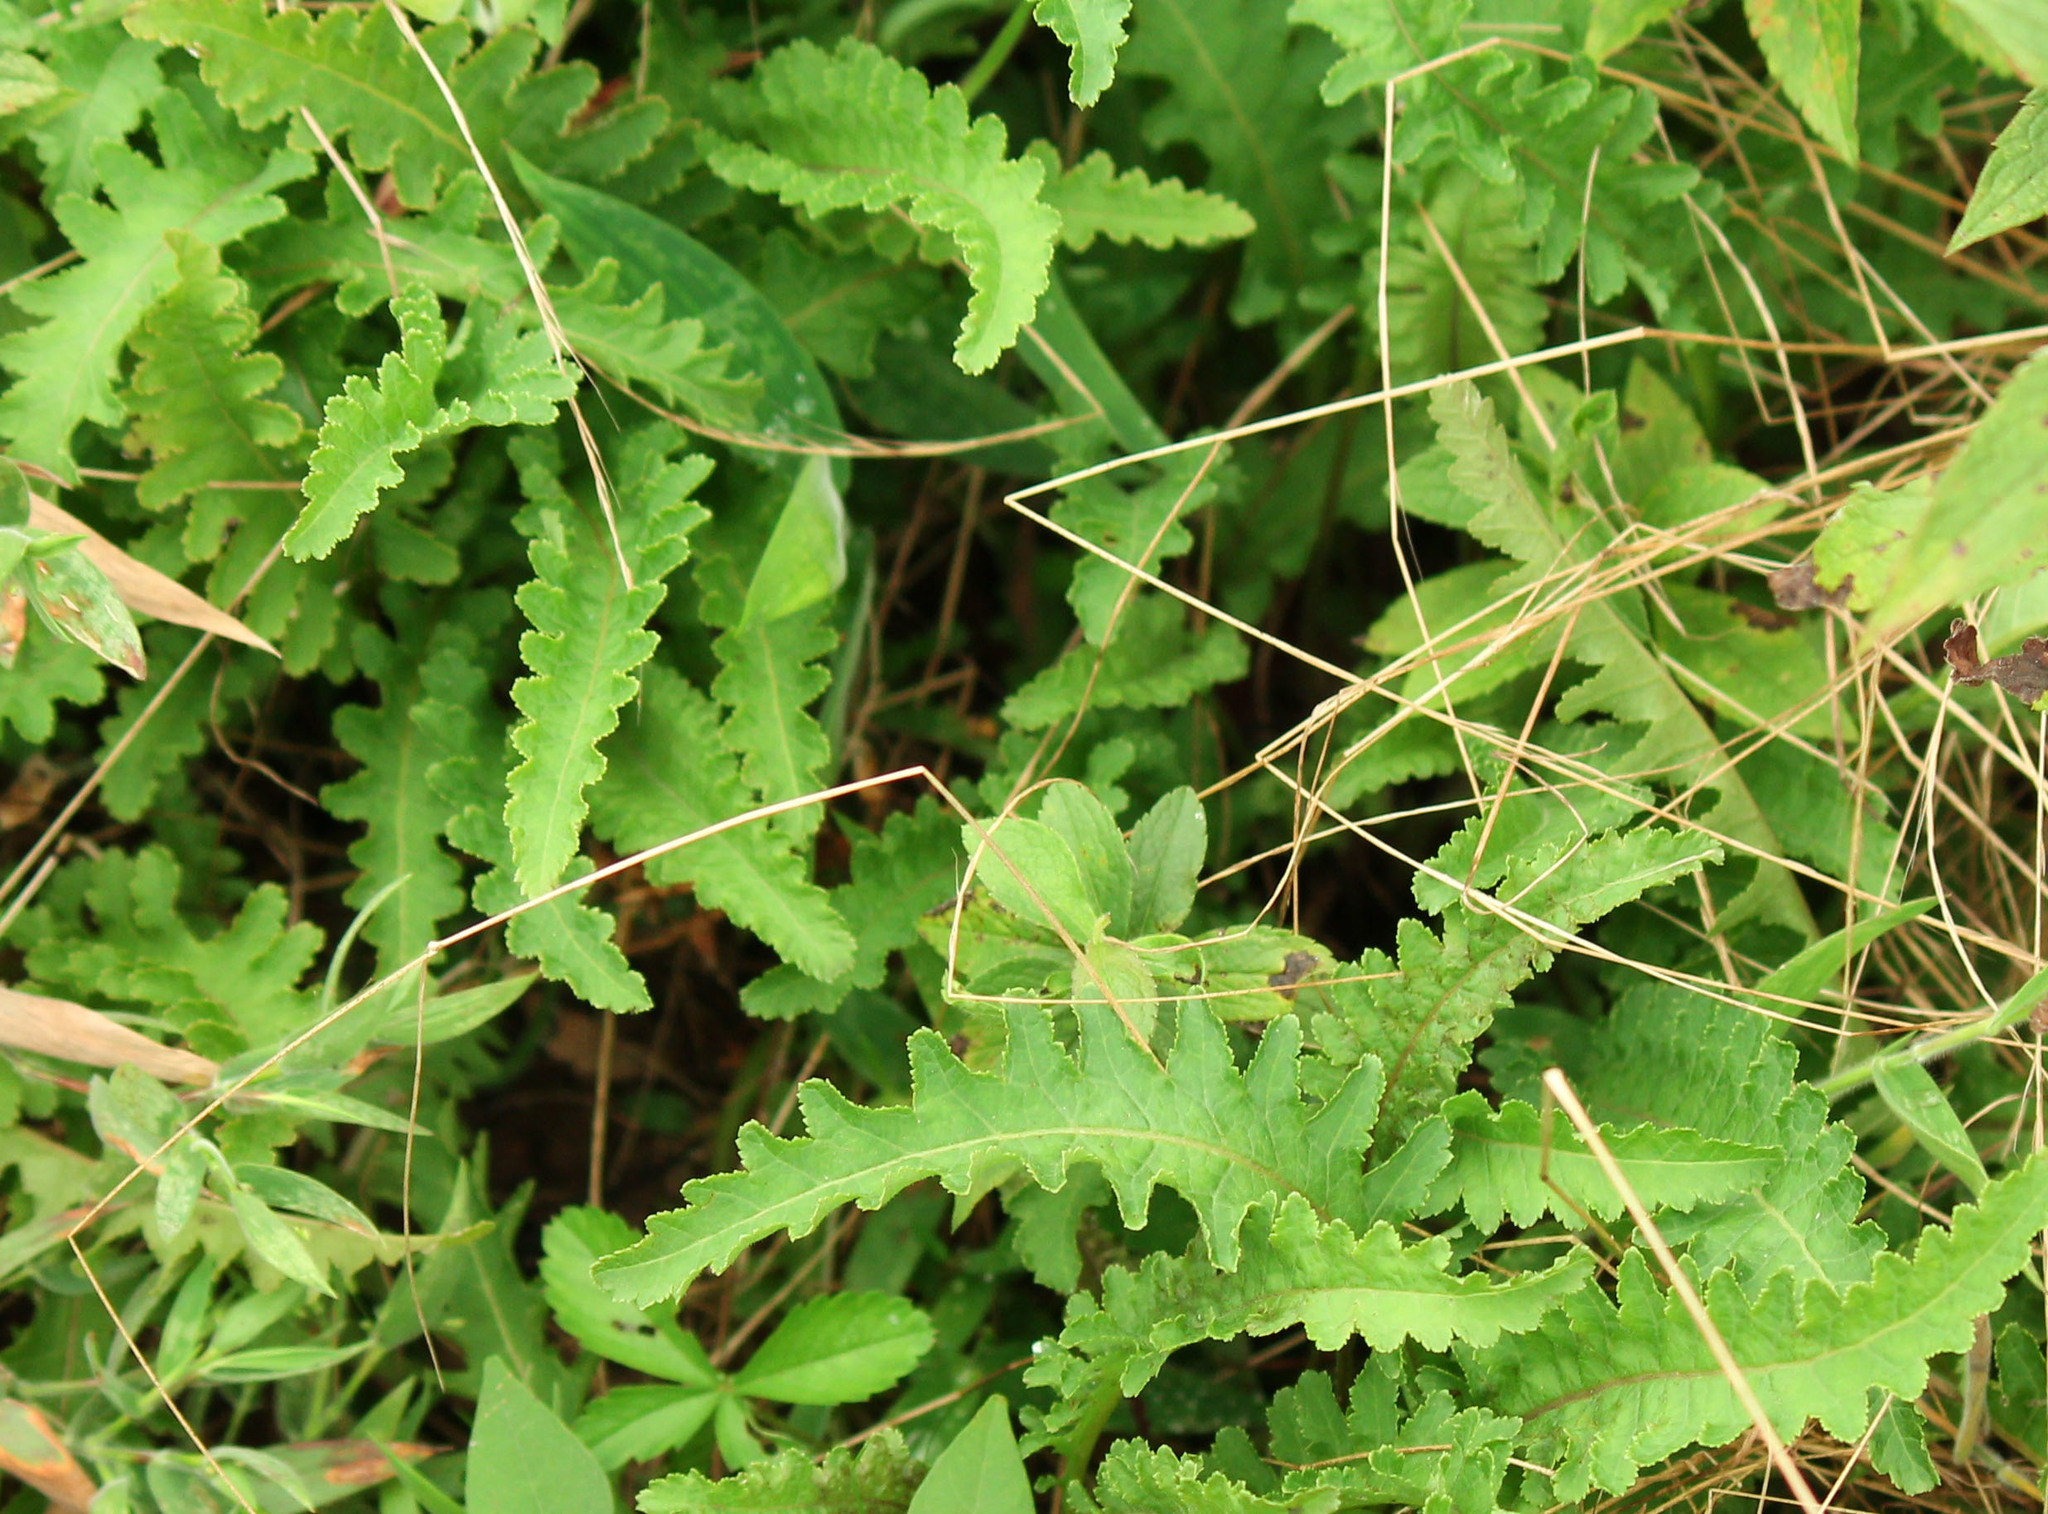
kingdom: Plantae
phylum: Tracheophyta
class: Magnoliopsida
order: Lamiales
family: Orobanchaceae
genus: Pedicularis
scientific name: Pedicularis canadensis
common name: Early lousewort
